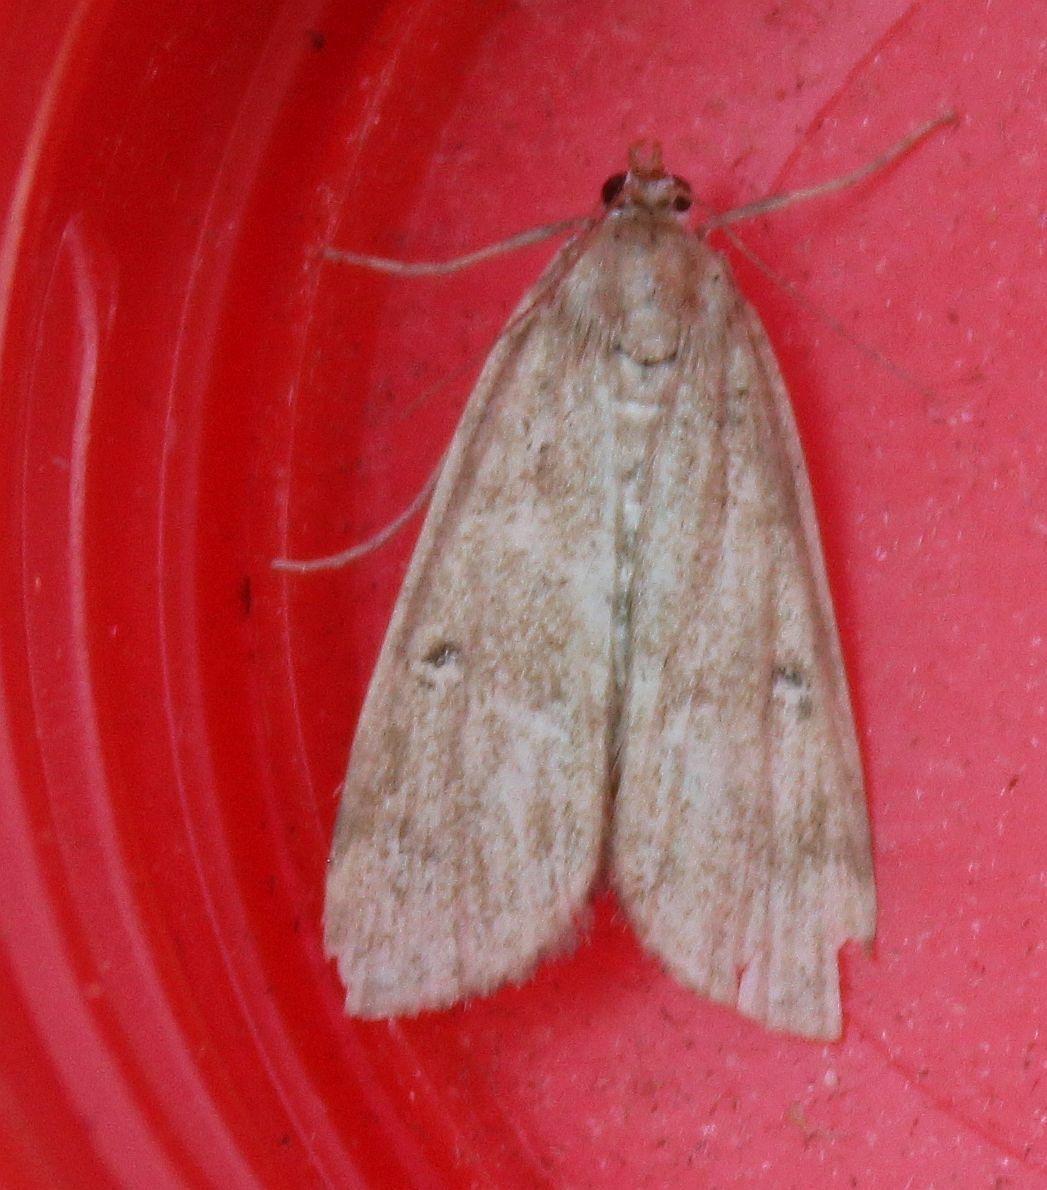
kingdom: Animalia
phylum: Arthropoda
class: Insecta
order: Lepidoptera
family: Crambidae
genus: Parapoynx
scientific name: Parapoynx stratiotata
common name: Ringed china-mark
